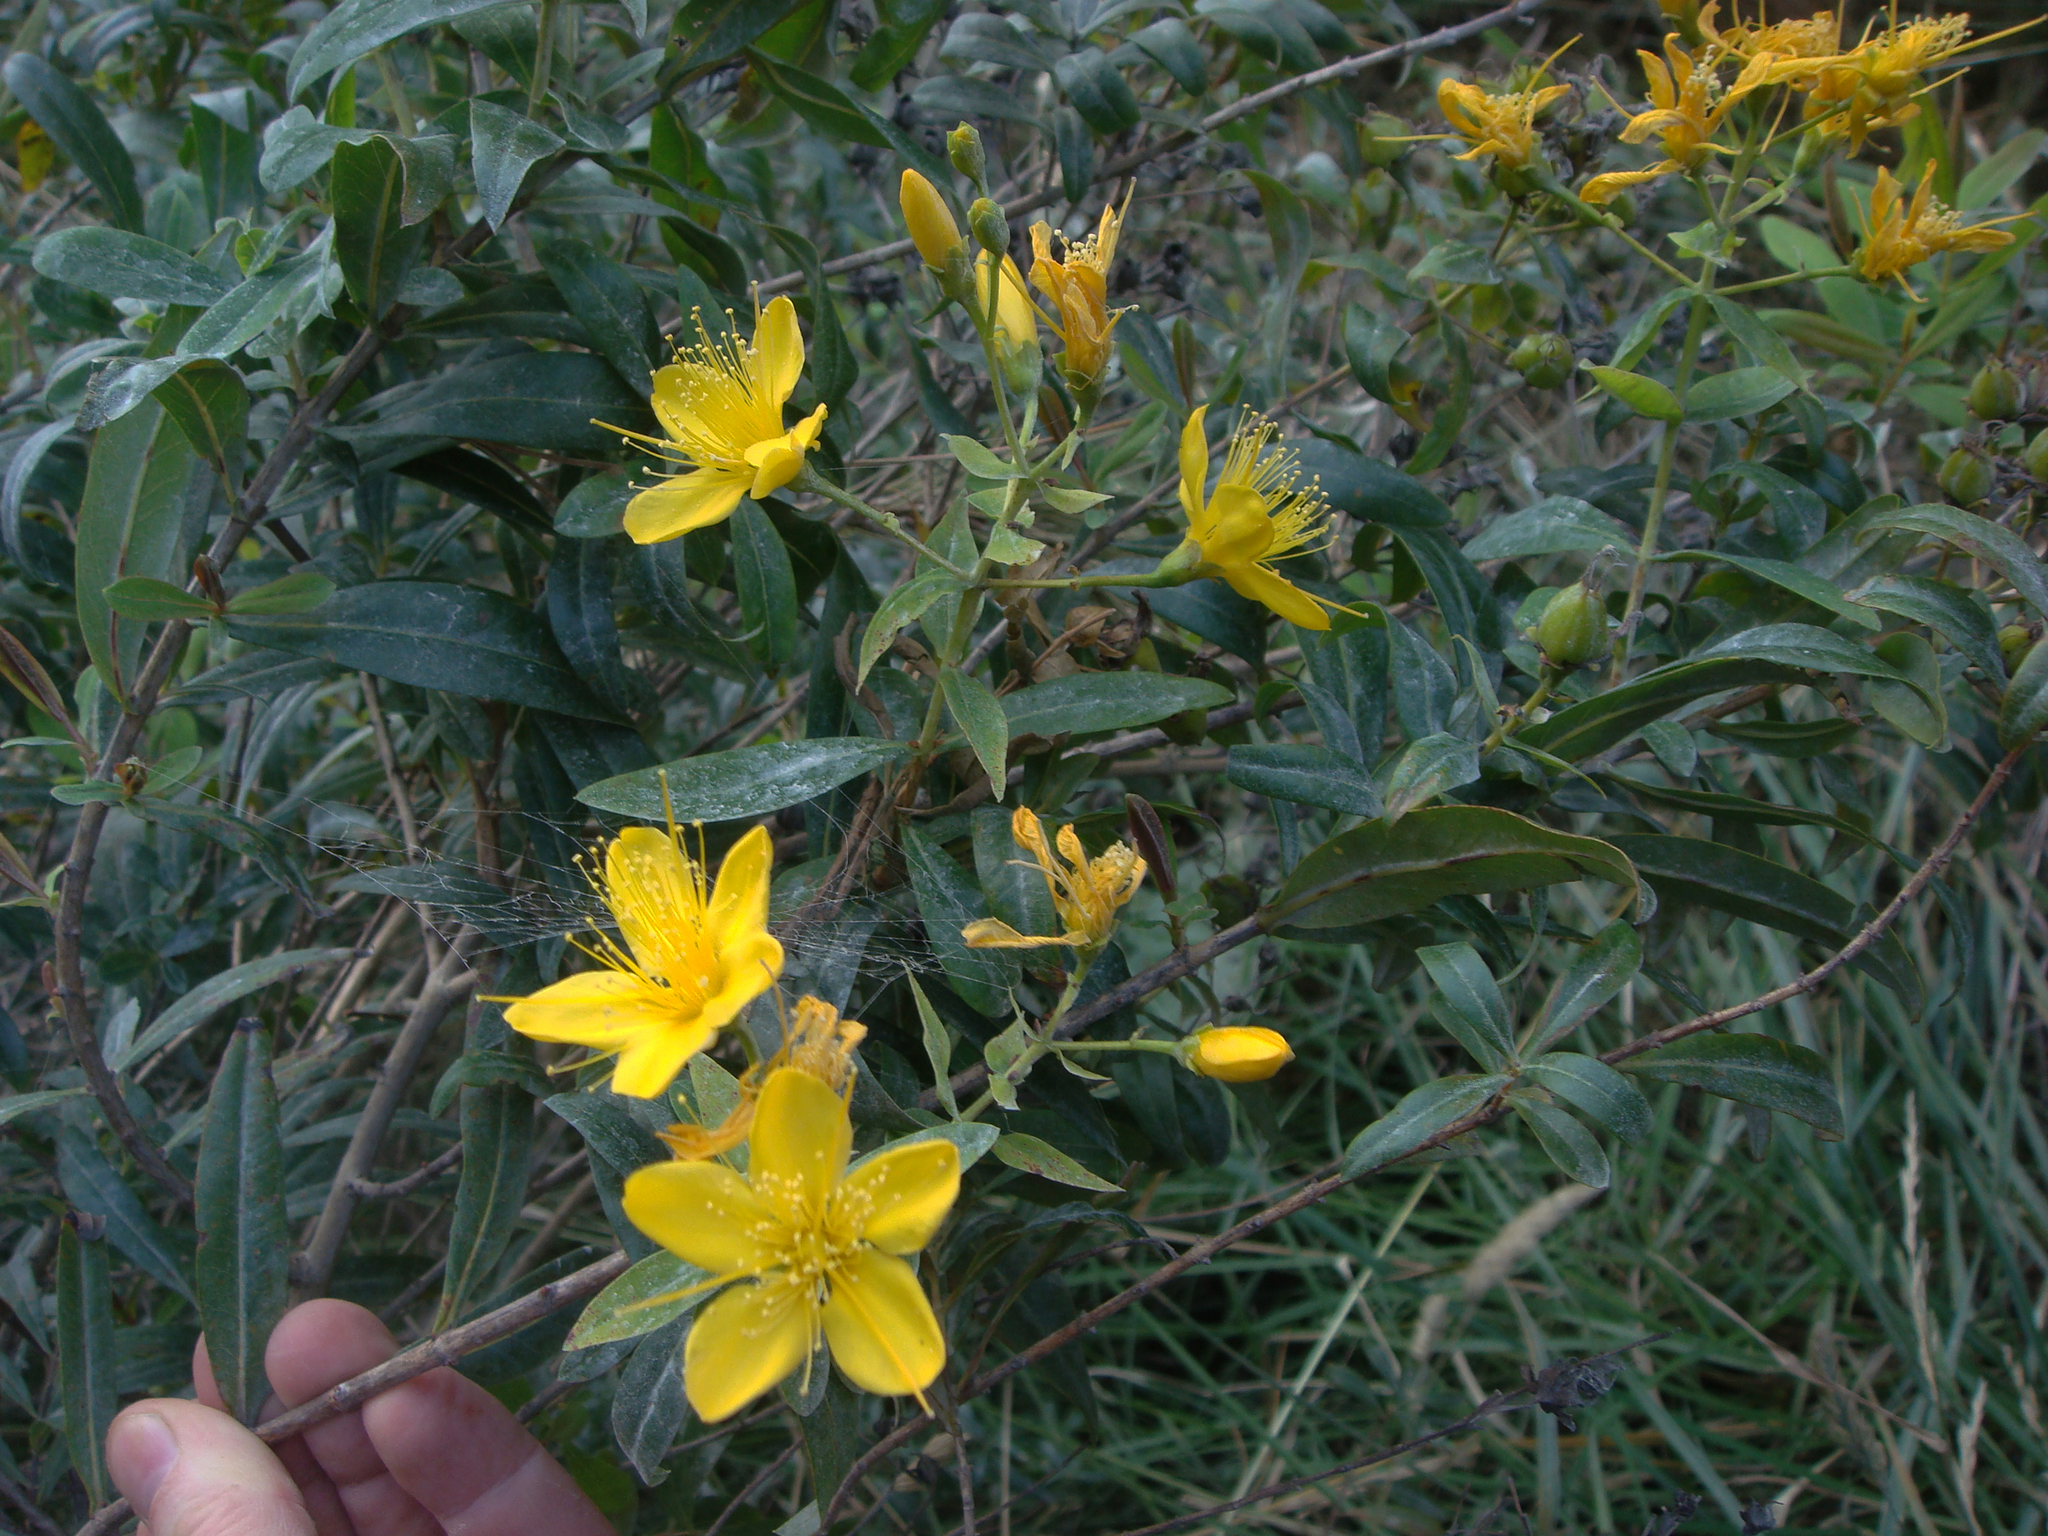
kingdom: Plantae
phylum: Tracheophyta
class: Magnoliopsida
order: Malpighiales
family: Hypericaceae
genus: Hypericum
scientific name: Hypericum canariense
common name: Canary island st. johnswort
